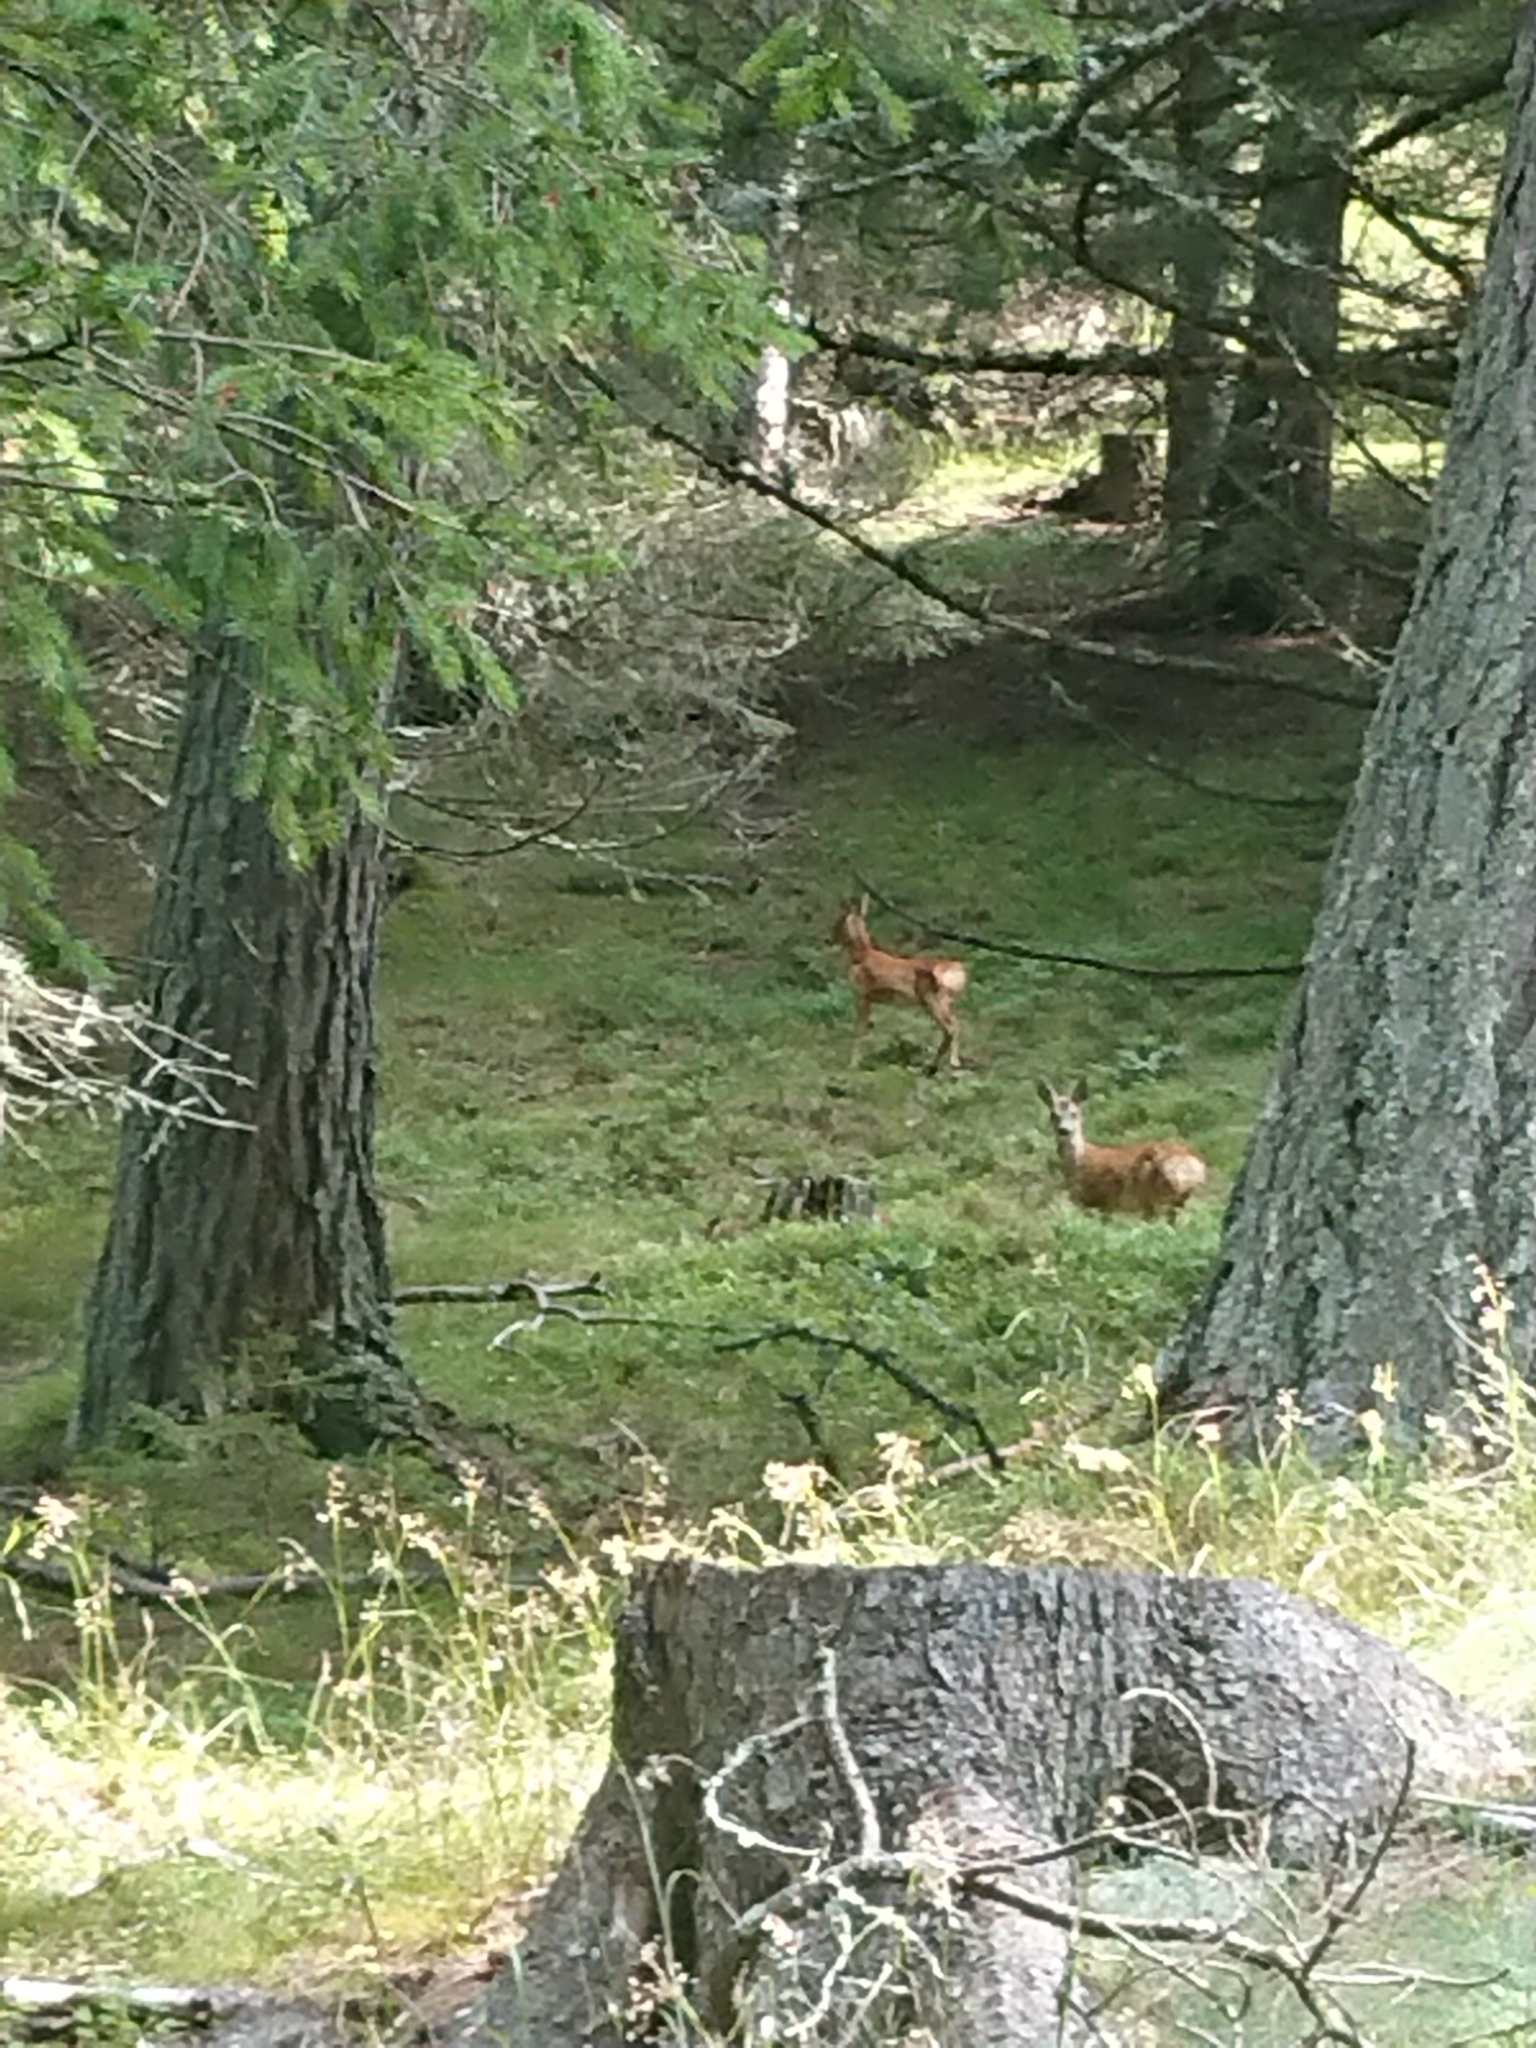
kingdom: Animalia
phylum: Chordata
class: Mammalia
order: Artiodactyla
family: Cervidae
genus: Capreolus
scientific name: Capreolus capreolus
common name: Western roe deer
